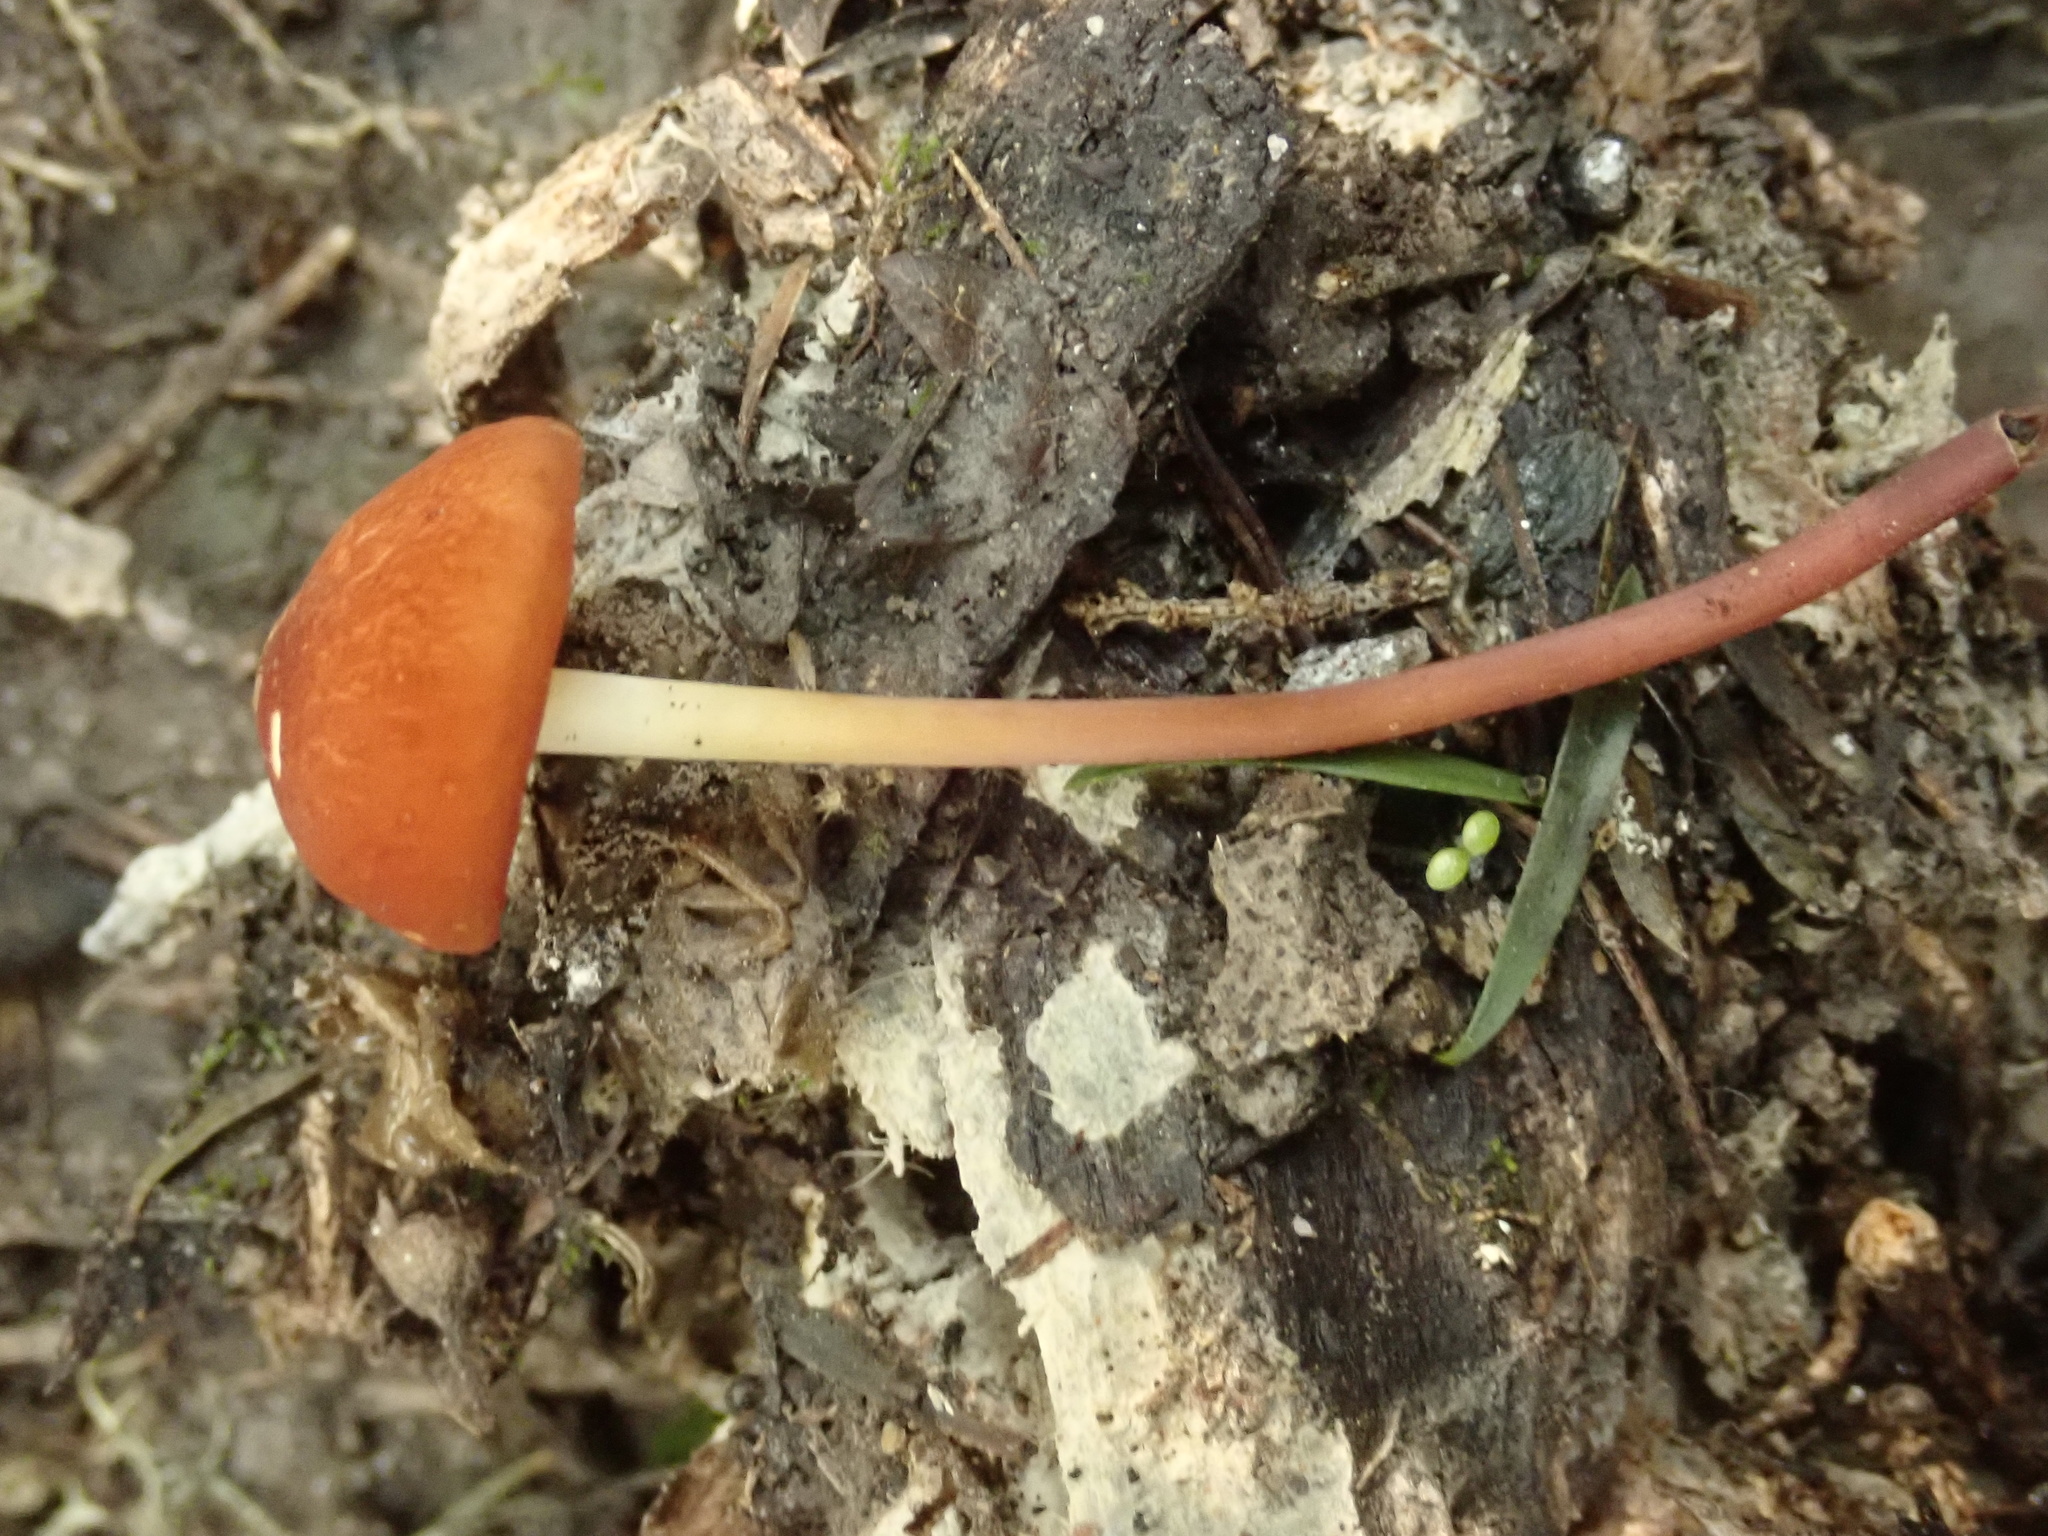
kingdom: Fungi
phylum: Basidiomycota
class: Agaricomycetes
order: Agaricales
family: Marasmiaceae
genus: Marasmius
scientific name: Marasmius elegans
